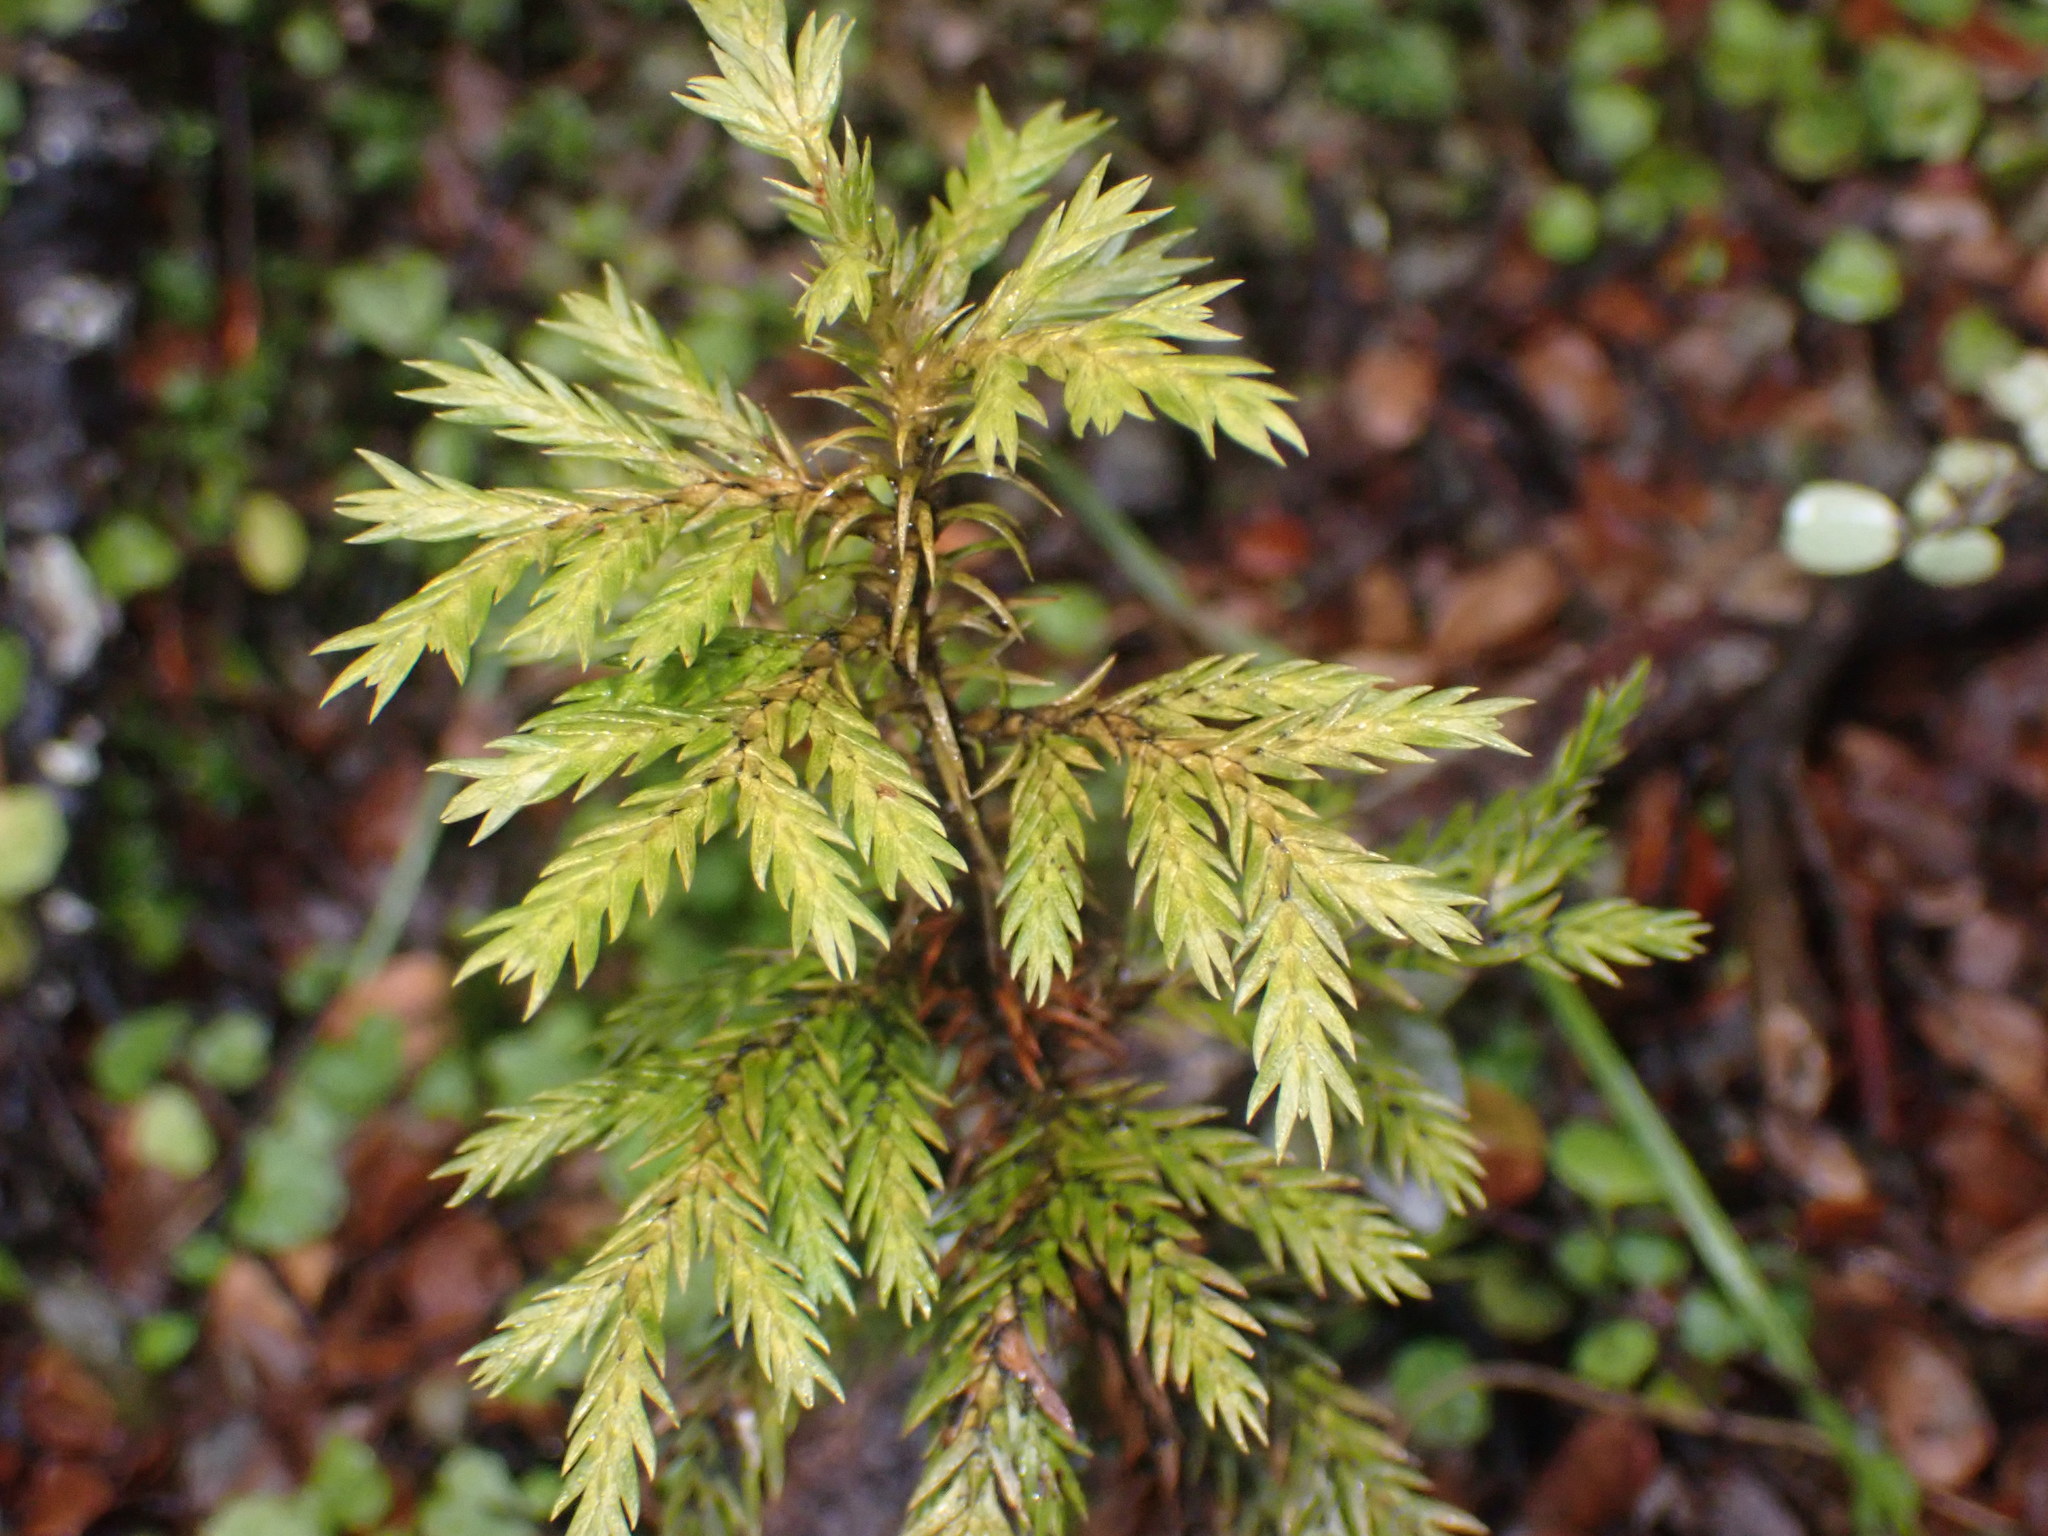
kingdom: Plantae
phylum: Tracheophyta
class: Pinopsida
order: Pinales
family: Cupressaceae
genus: Libocedrus
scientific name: Libocedrus bidwillii
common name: Cedar
